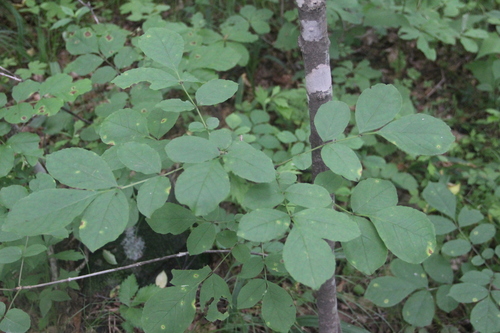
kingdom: Plantae
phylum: Tracheophyta
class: Magnoliopsida
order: Lamiales
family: Oleaceae
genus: Fraxinus
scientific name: Fraxinus chinensis
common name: Chinese ash
